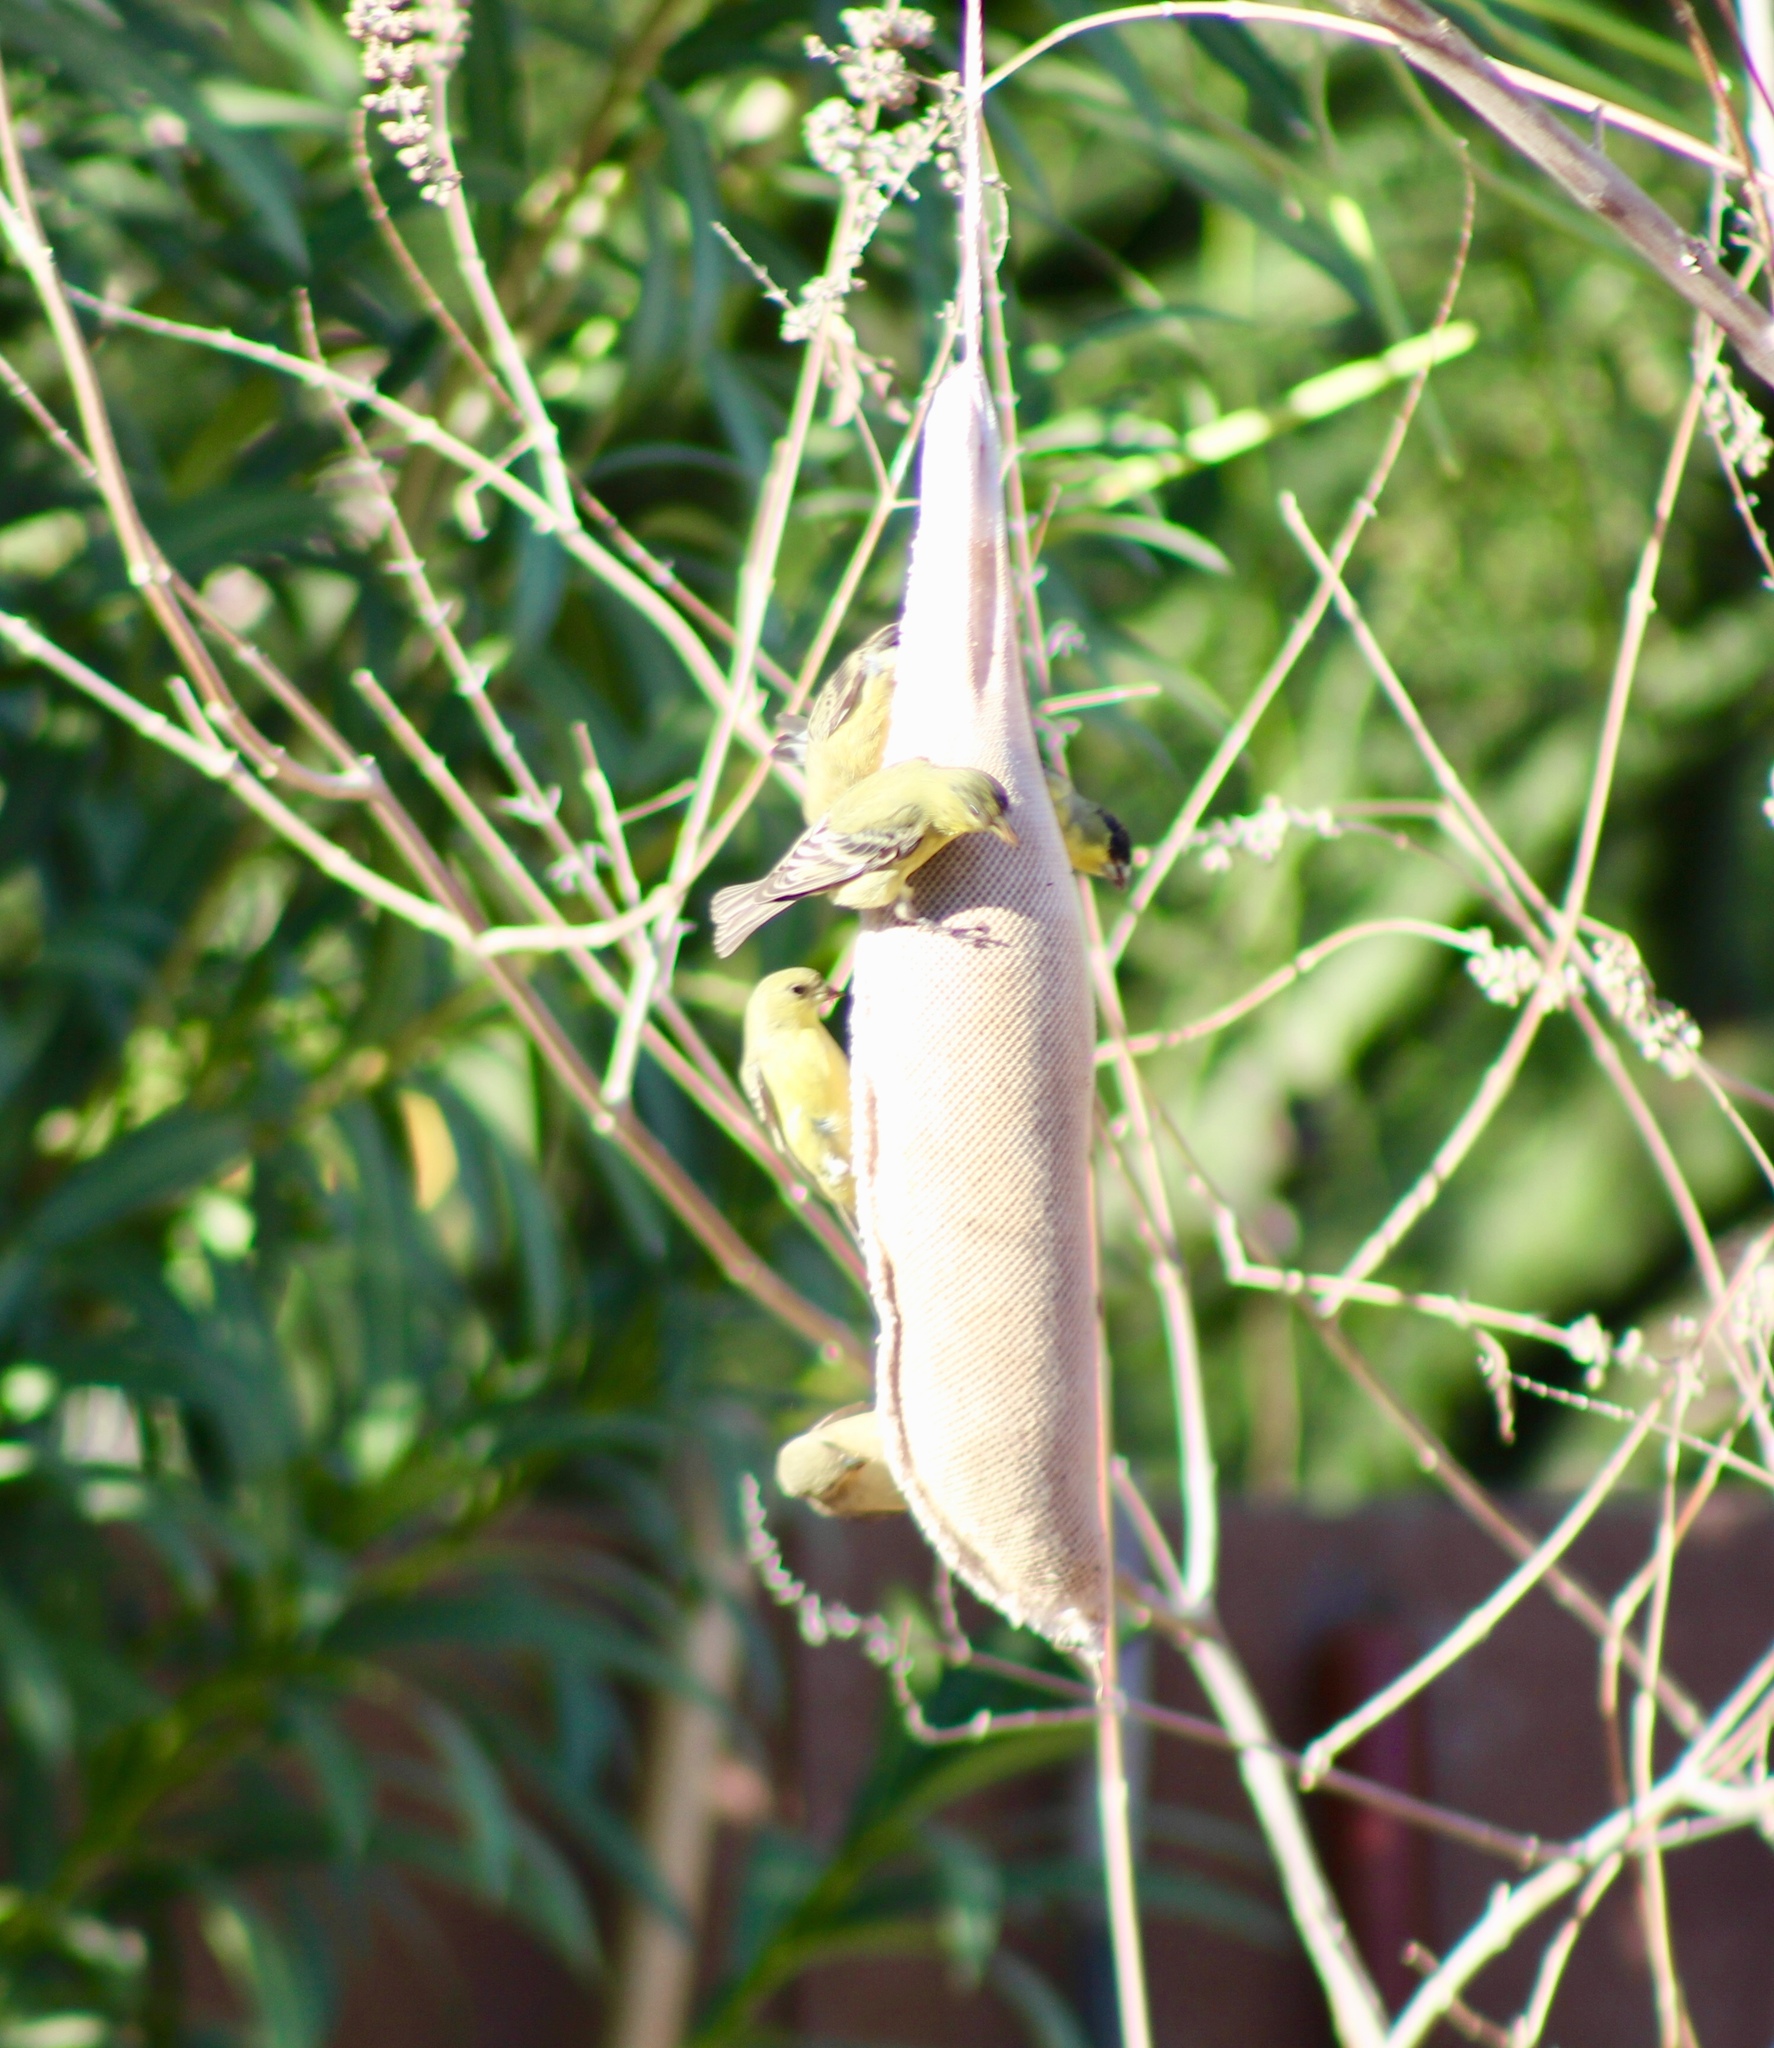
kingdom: Animalia
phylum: Chordata
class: Aves
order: Passeriformes
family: Fringillidae
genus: Spinus
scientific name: Spinus psaltria
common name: Lesser goldfinch
